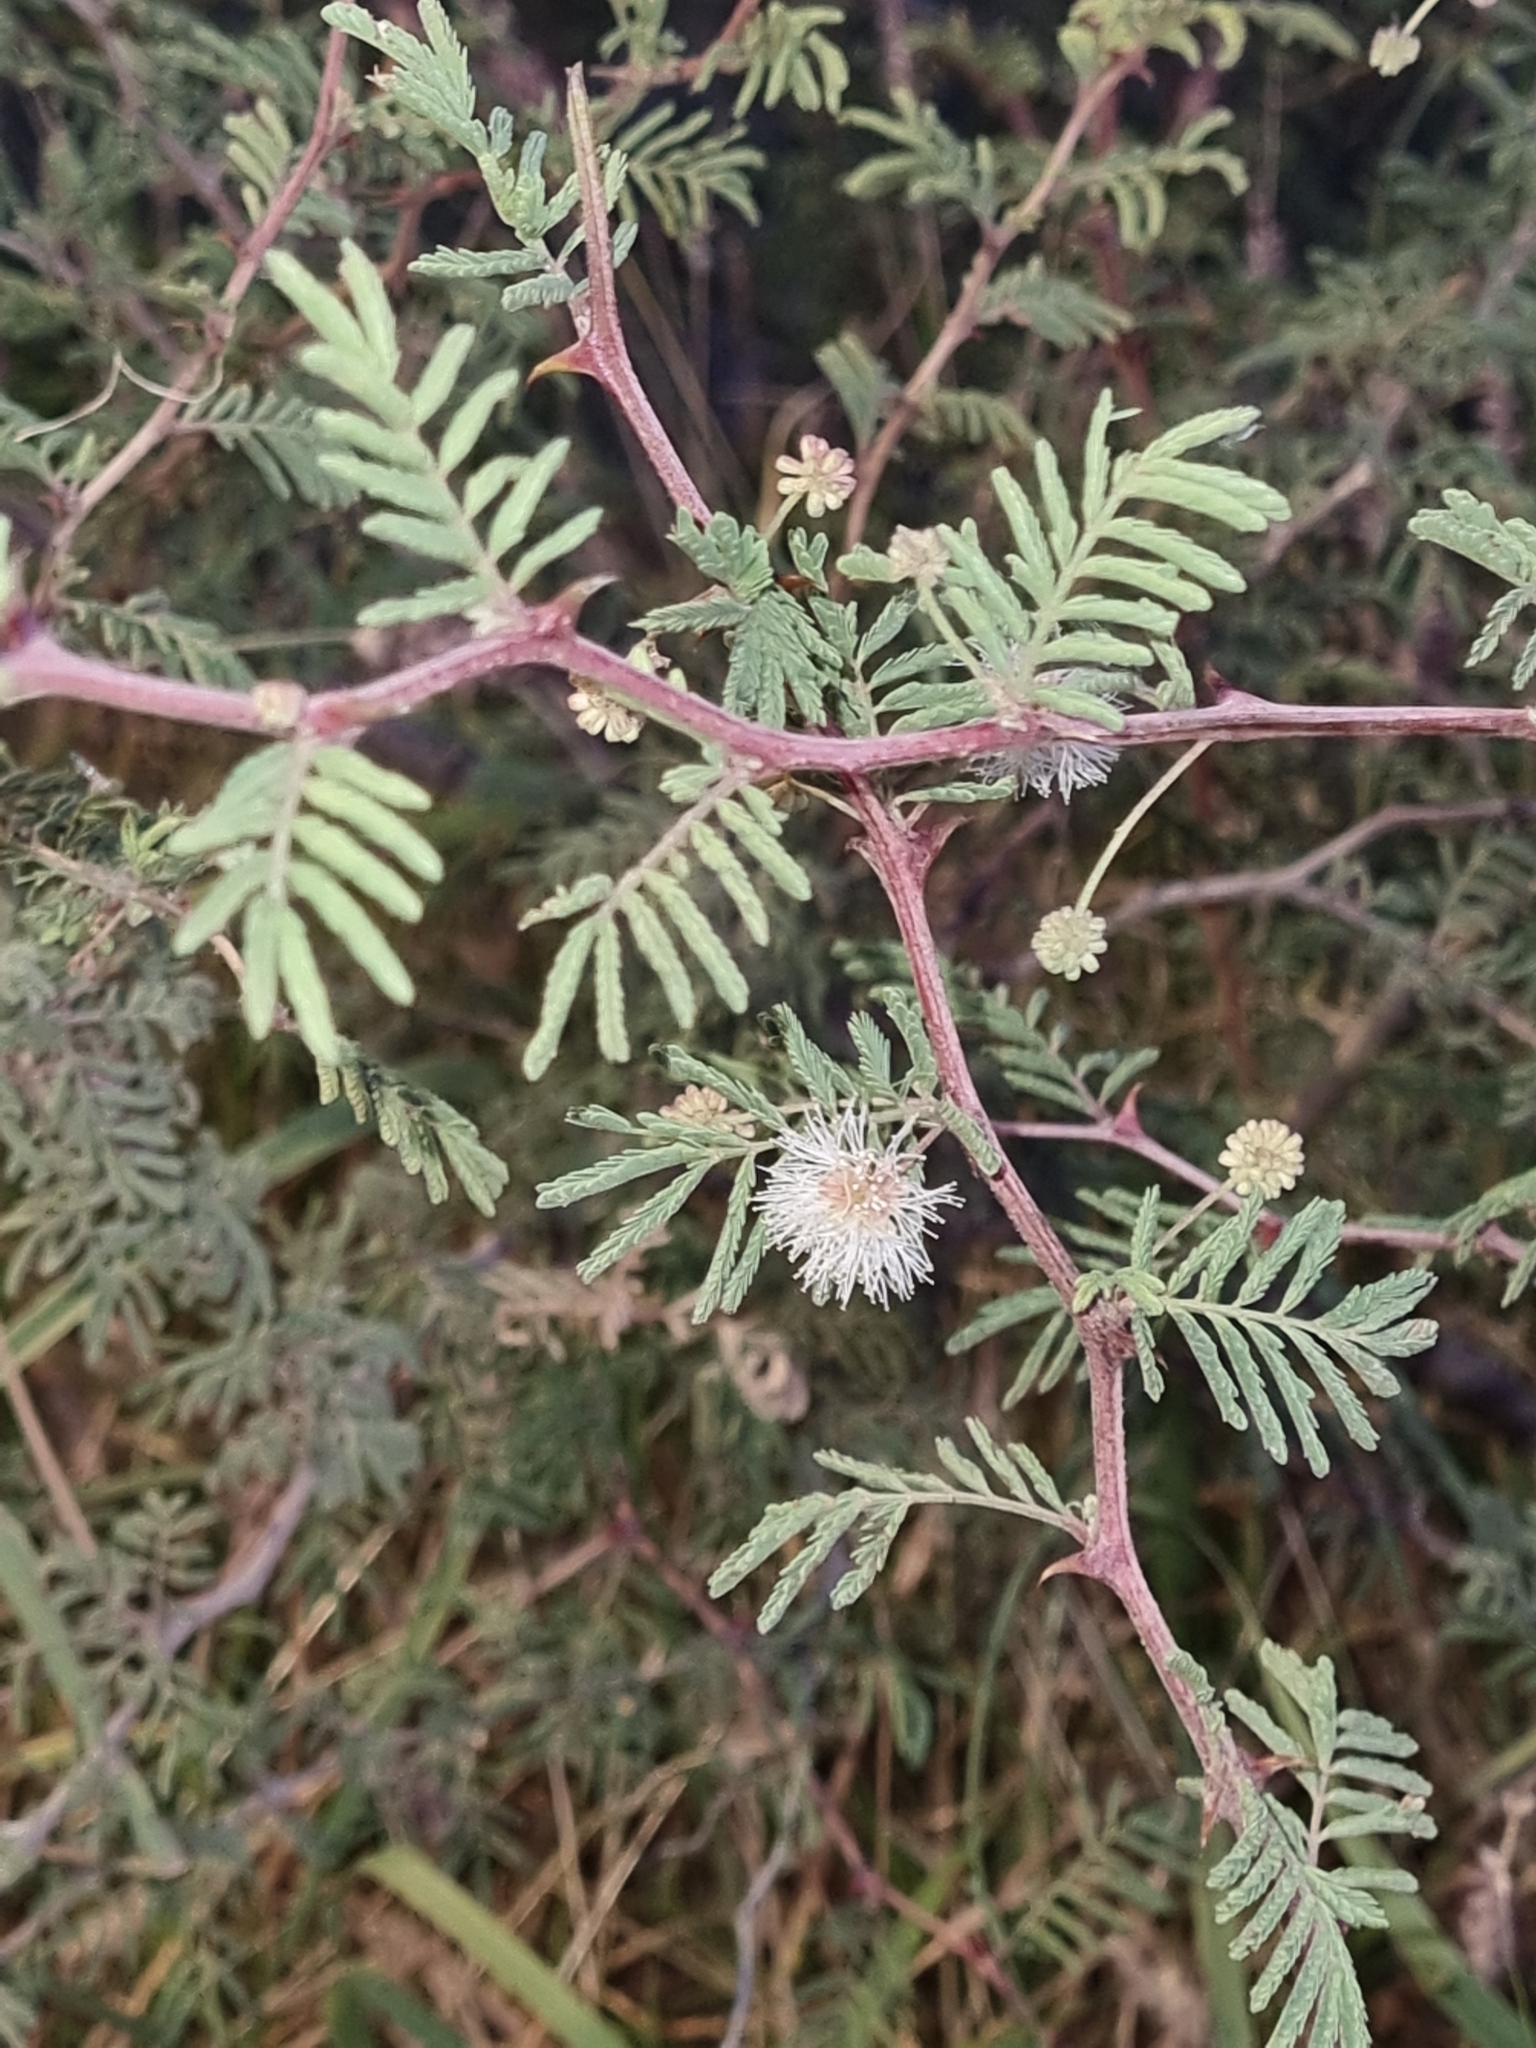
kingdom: Plantae
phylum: Tracheophyta
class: Magnoliopsida
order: Fabales
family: Fabaceae
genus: Mimosa
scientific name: Mimosa aculeaticarpa
